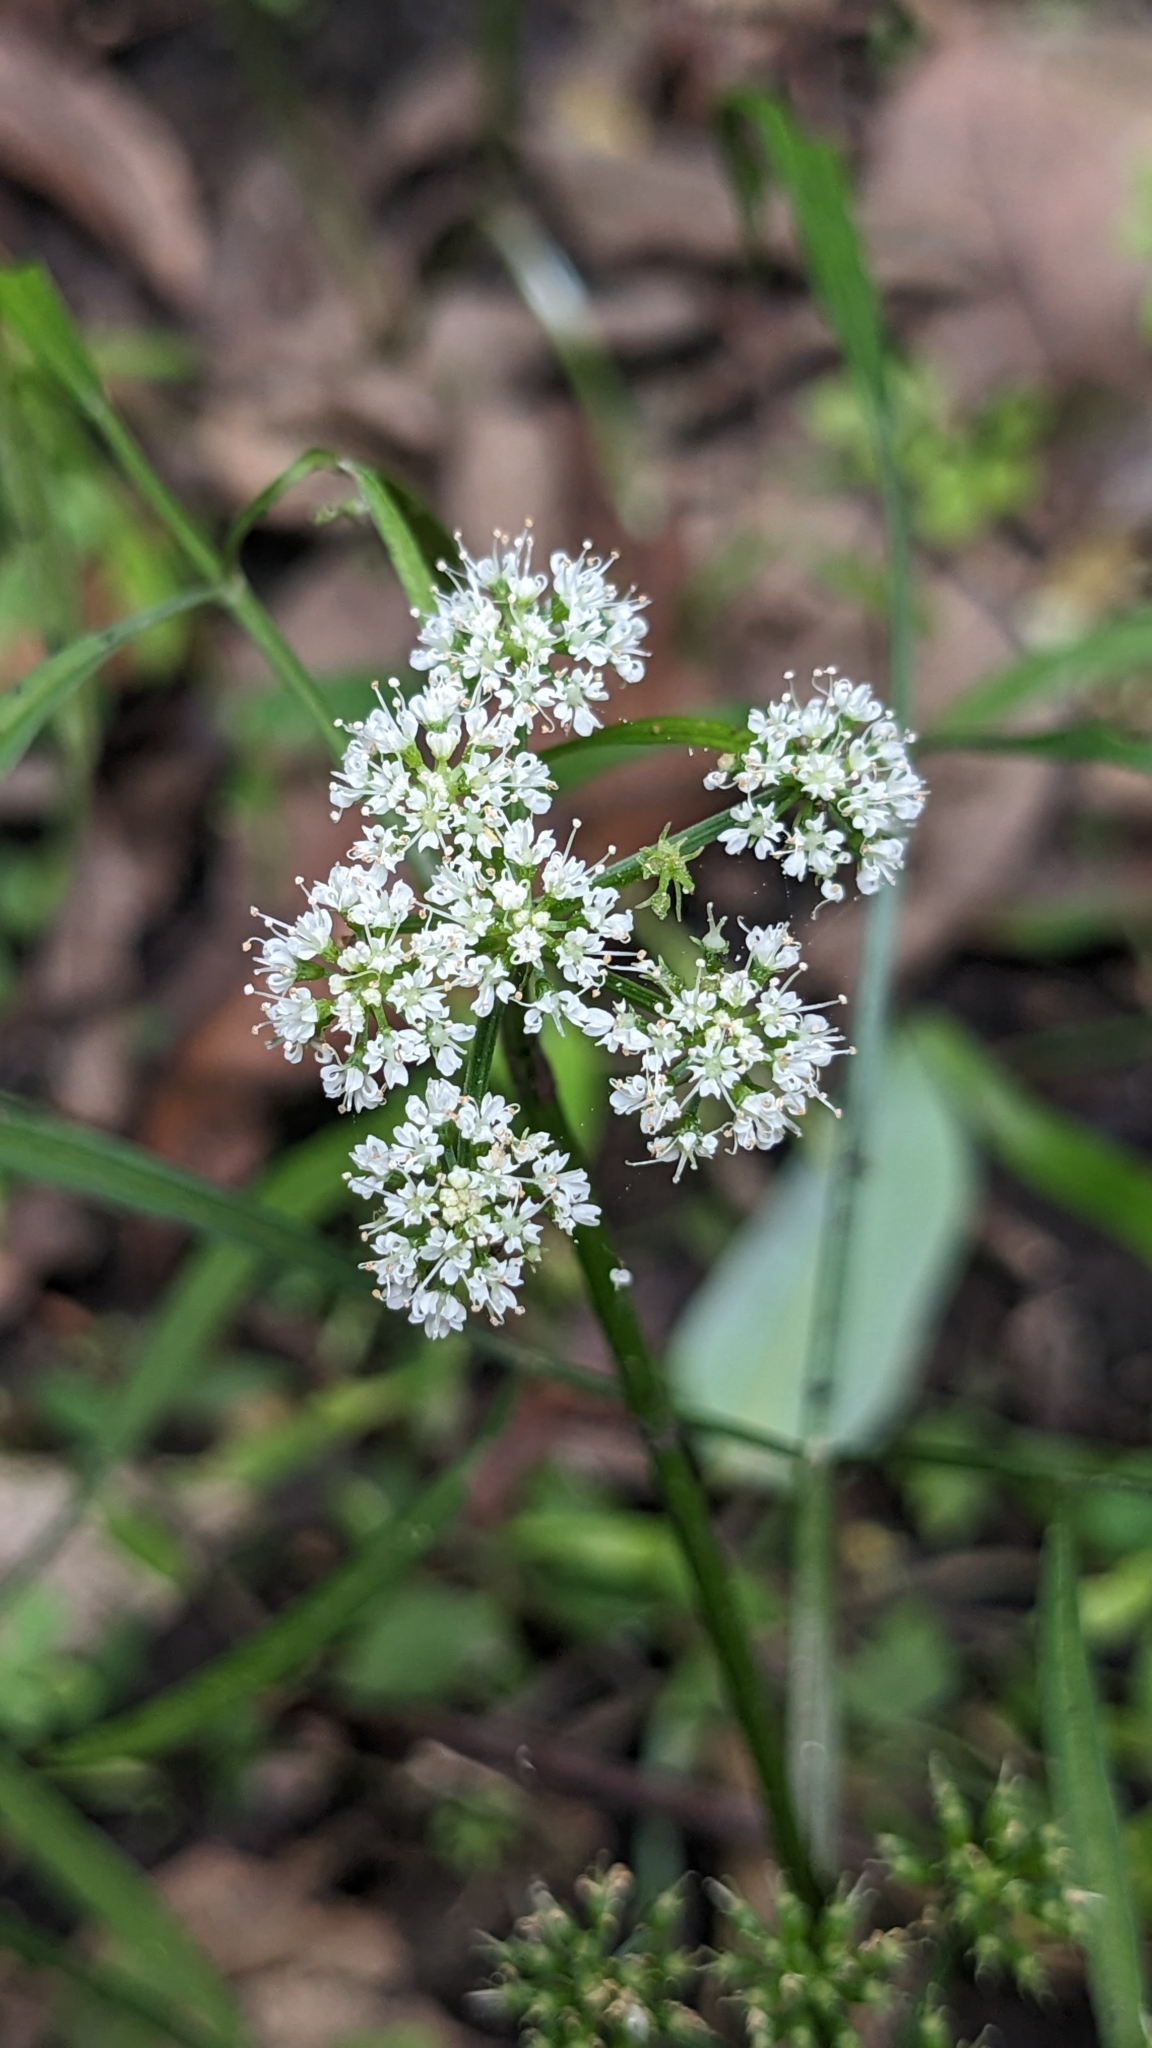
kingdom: Plantae
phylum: Tracheophyta
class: Magnoliopsida
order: Apiales
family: Apiaceae
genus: Oenanthe
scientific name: Oenanthe javanica
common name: Java water-dropwort
